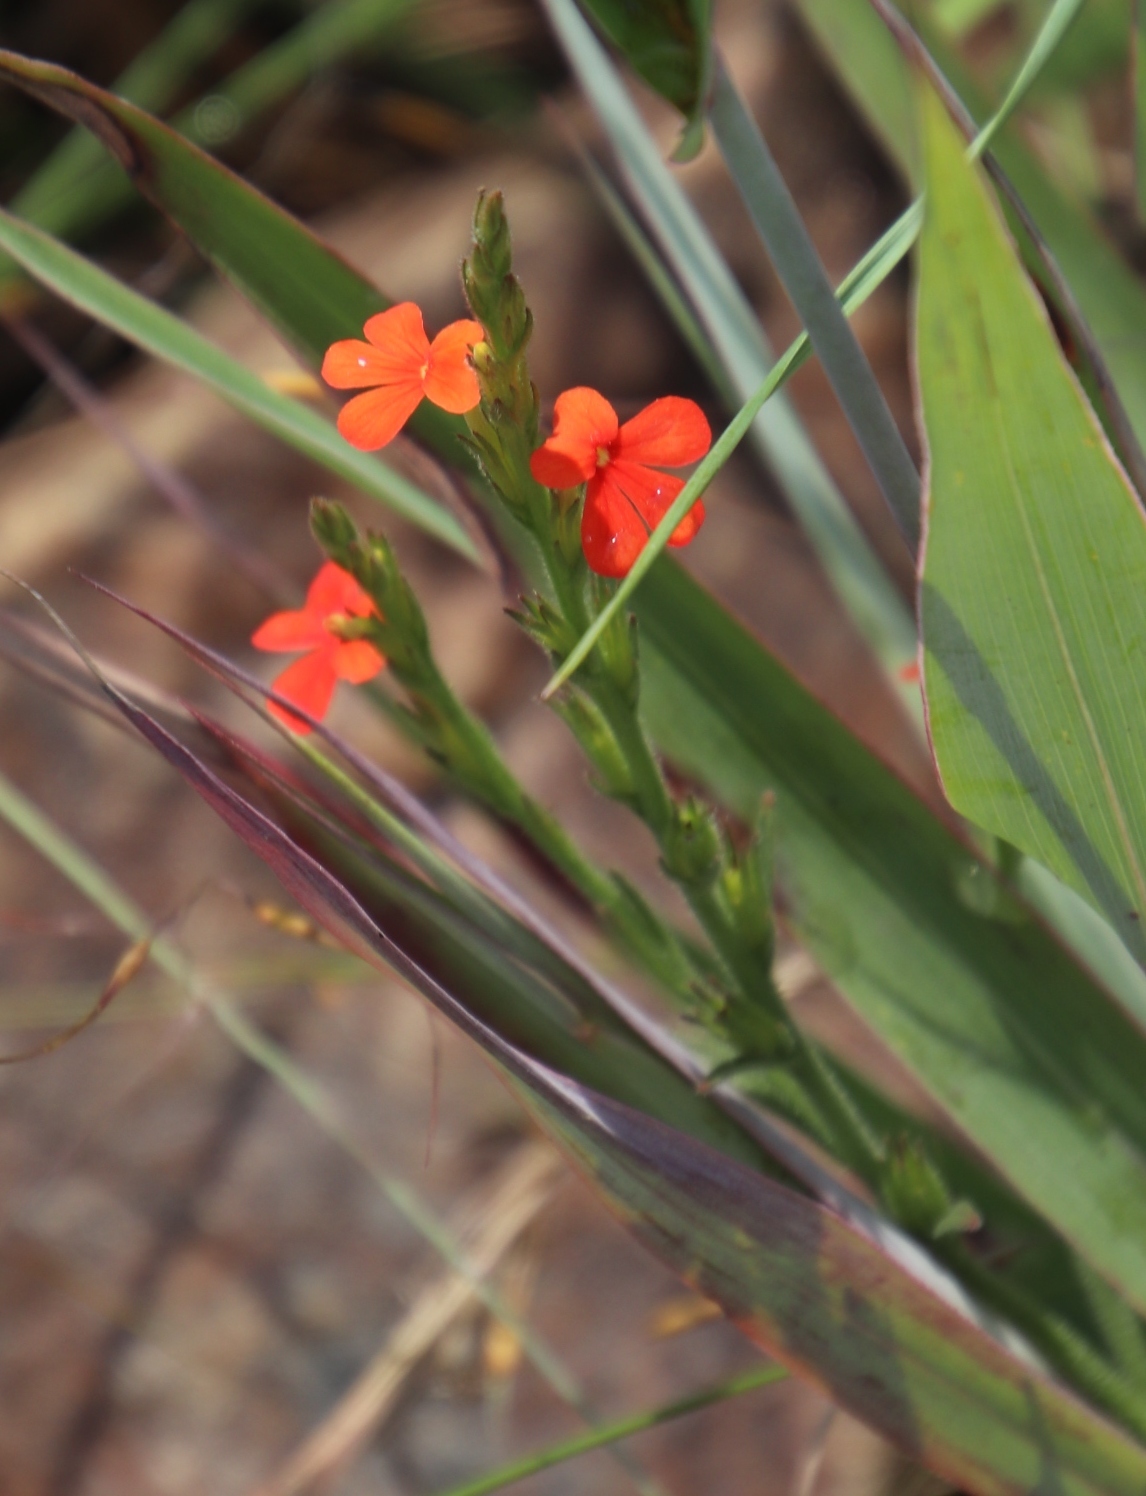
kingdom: Plantae
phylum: Tracheophyta
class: Magnoliopsida
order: Lamiales
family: Orobanchaceae
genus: Striga
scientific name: Striga elegans
